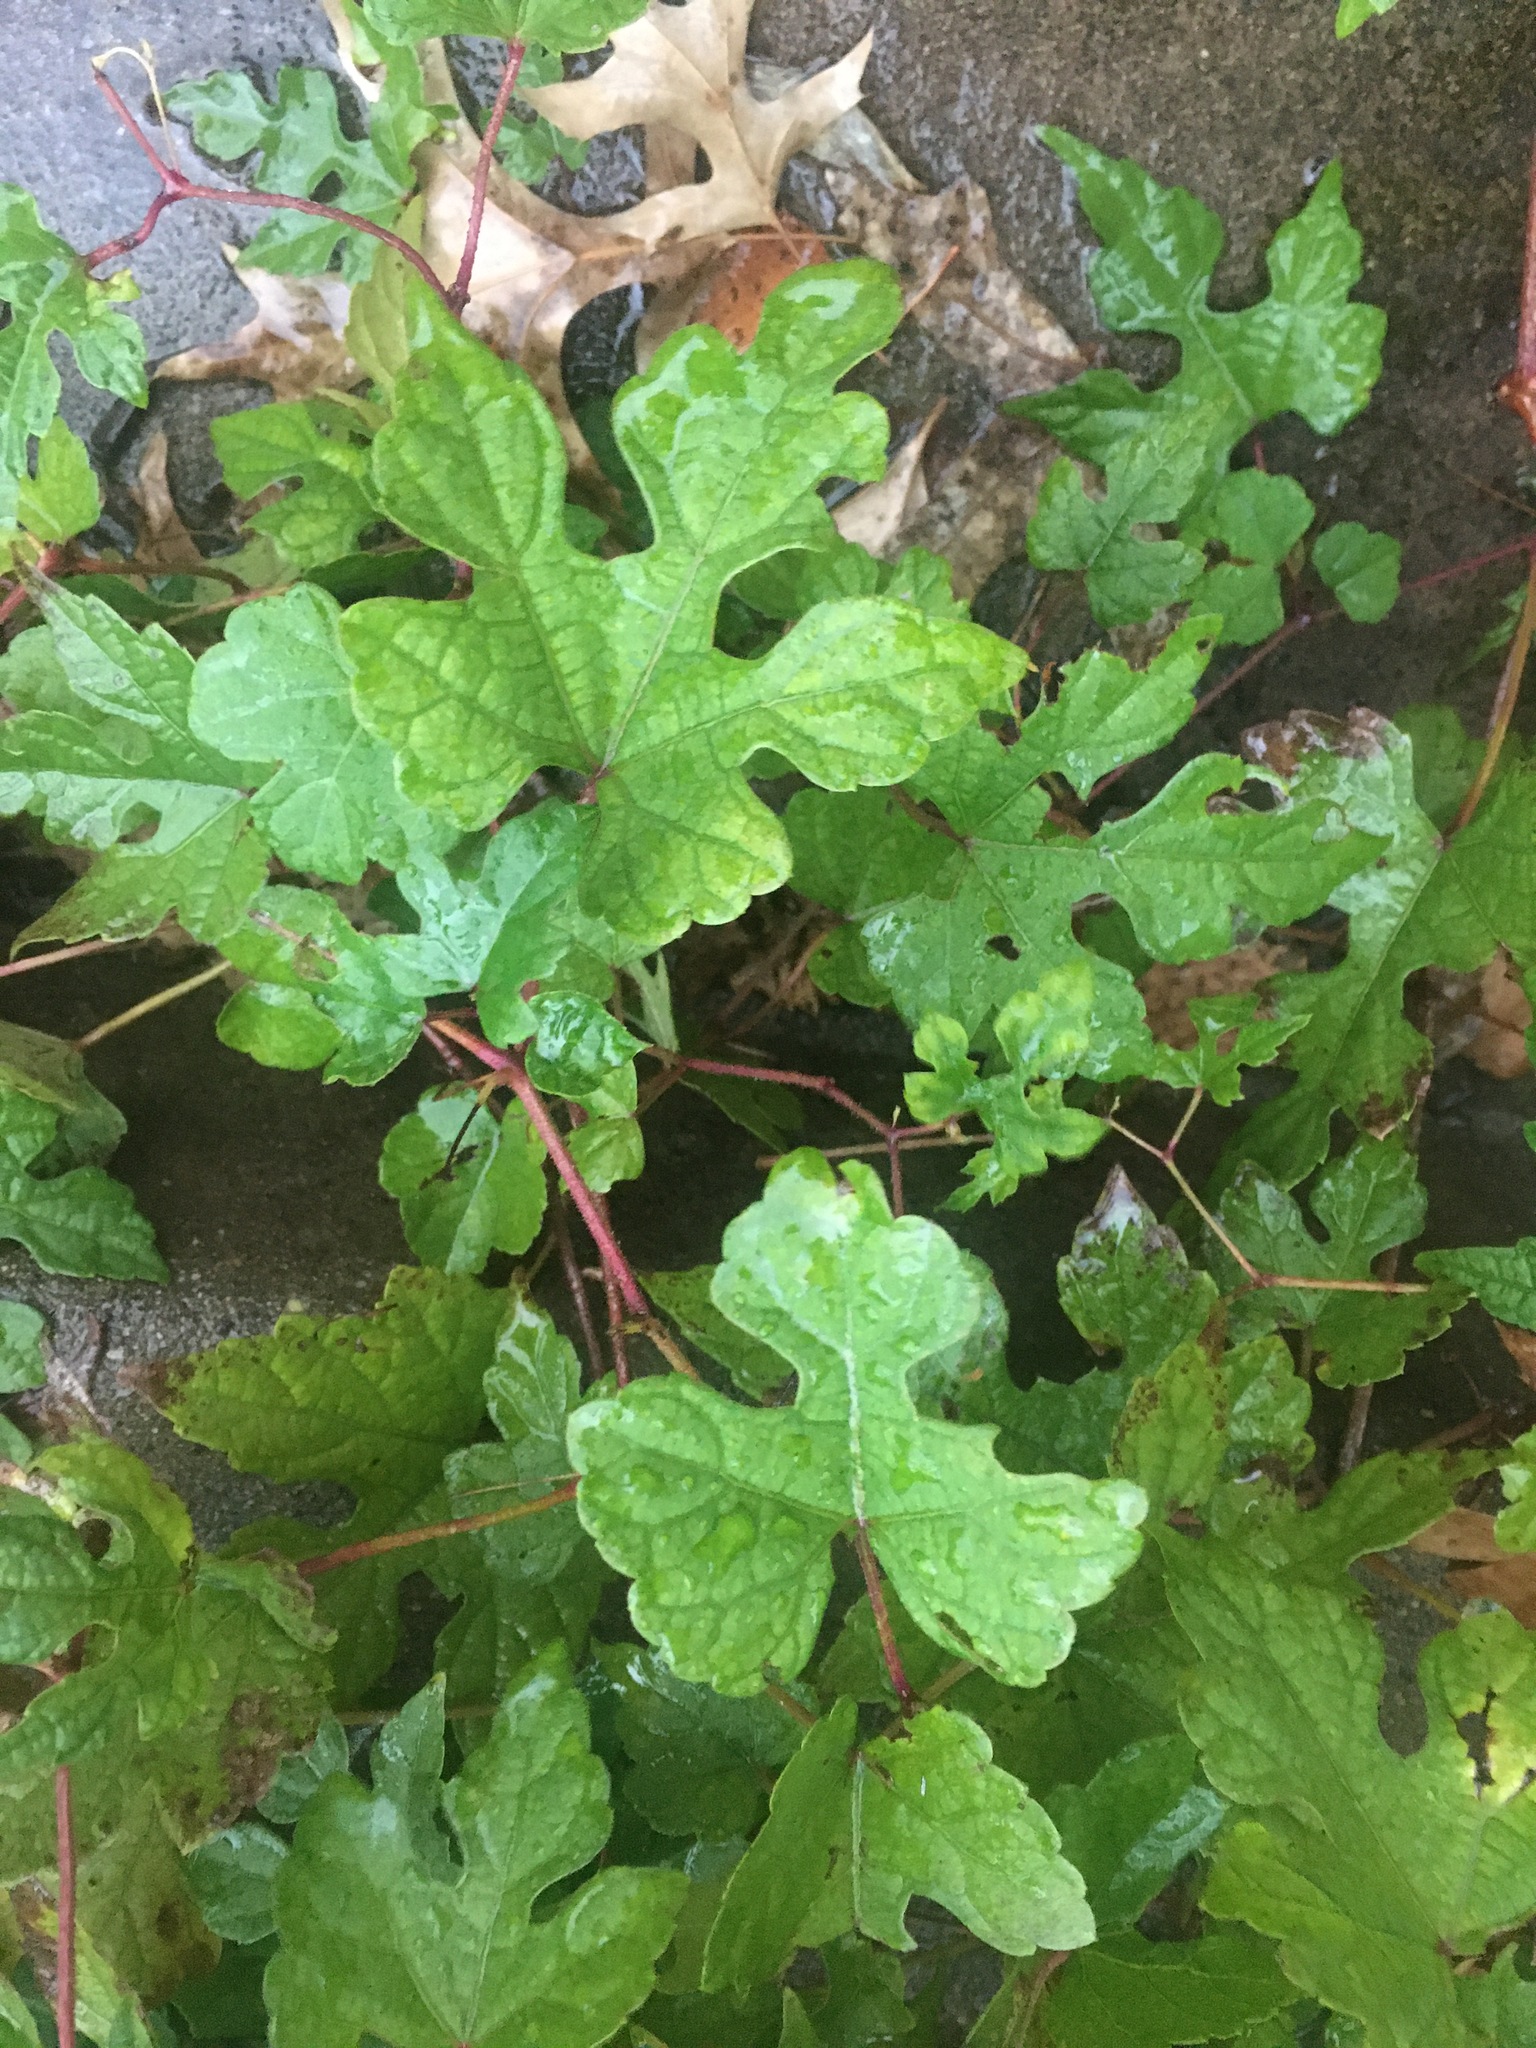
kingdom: Plantae
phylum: Tracheophyta
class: Magnoliopsida
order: Vitales
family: Vitaceae
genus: Ampelopsis
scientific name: Ampelopsis glandulosa
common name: Amur peppervine
